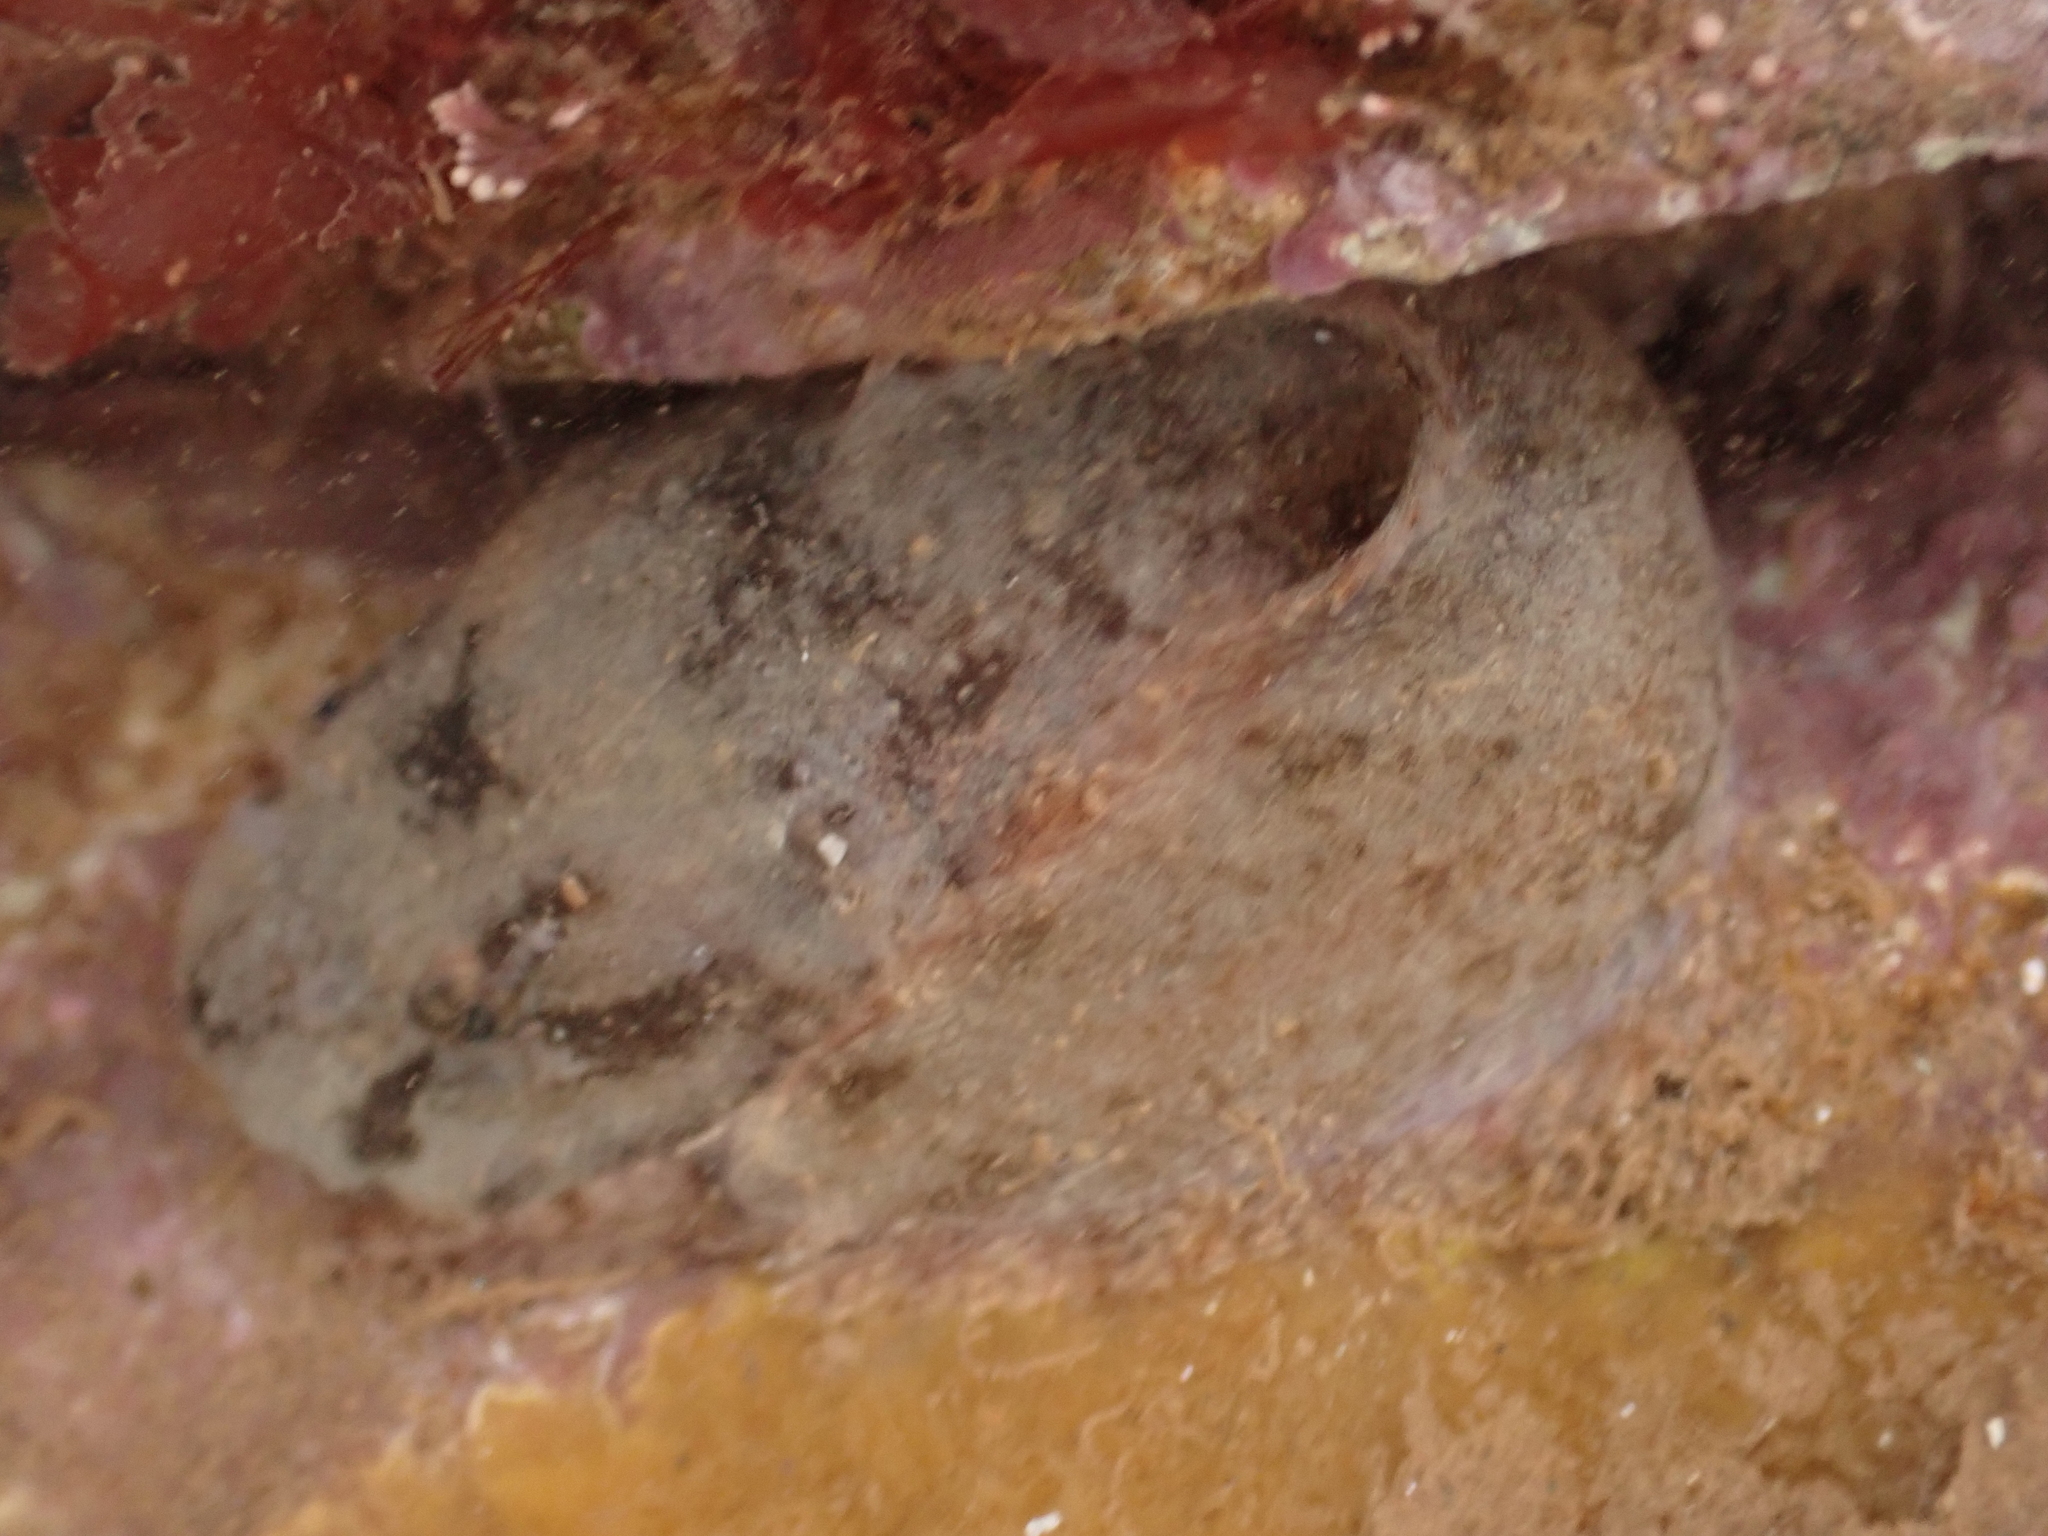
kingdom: Animalia
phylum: Chordata
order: Scorpaeniformes
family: Liparidae
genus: Liparis
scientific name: Liparis atlanticus
